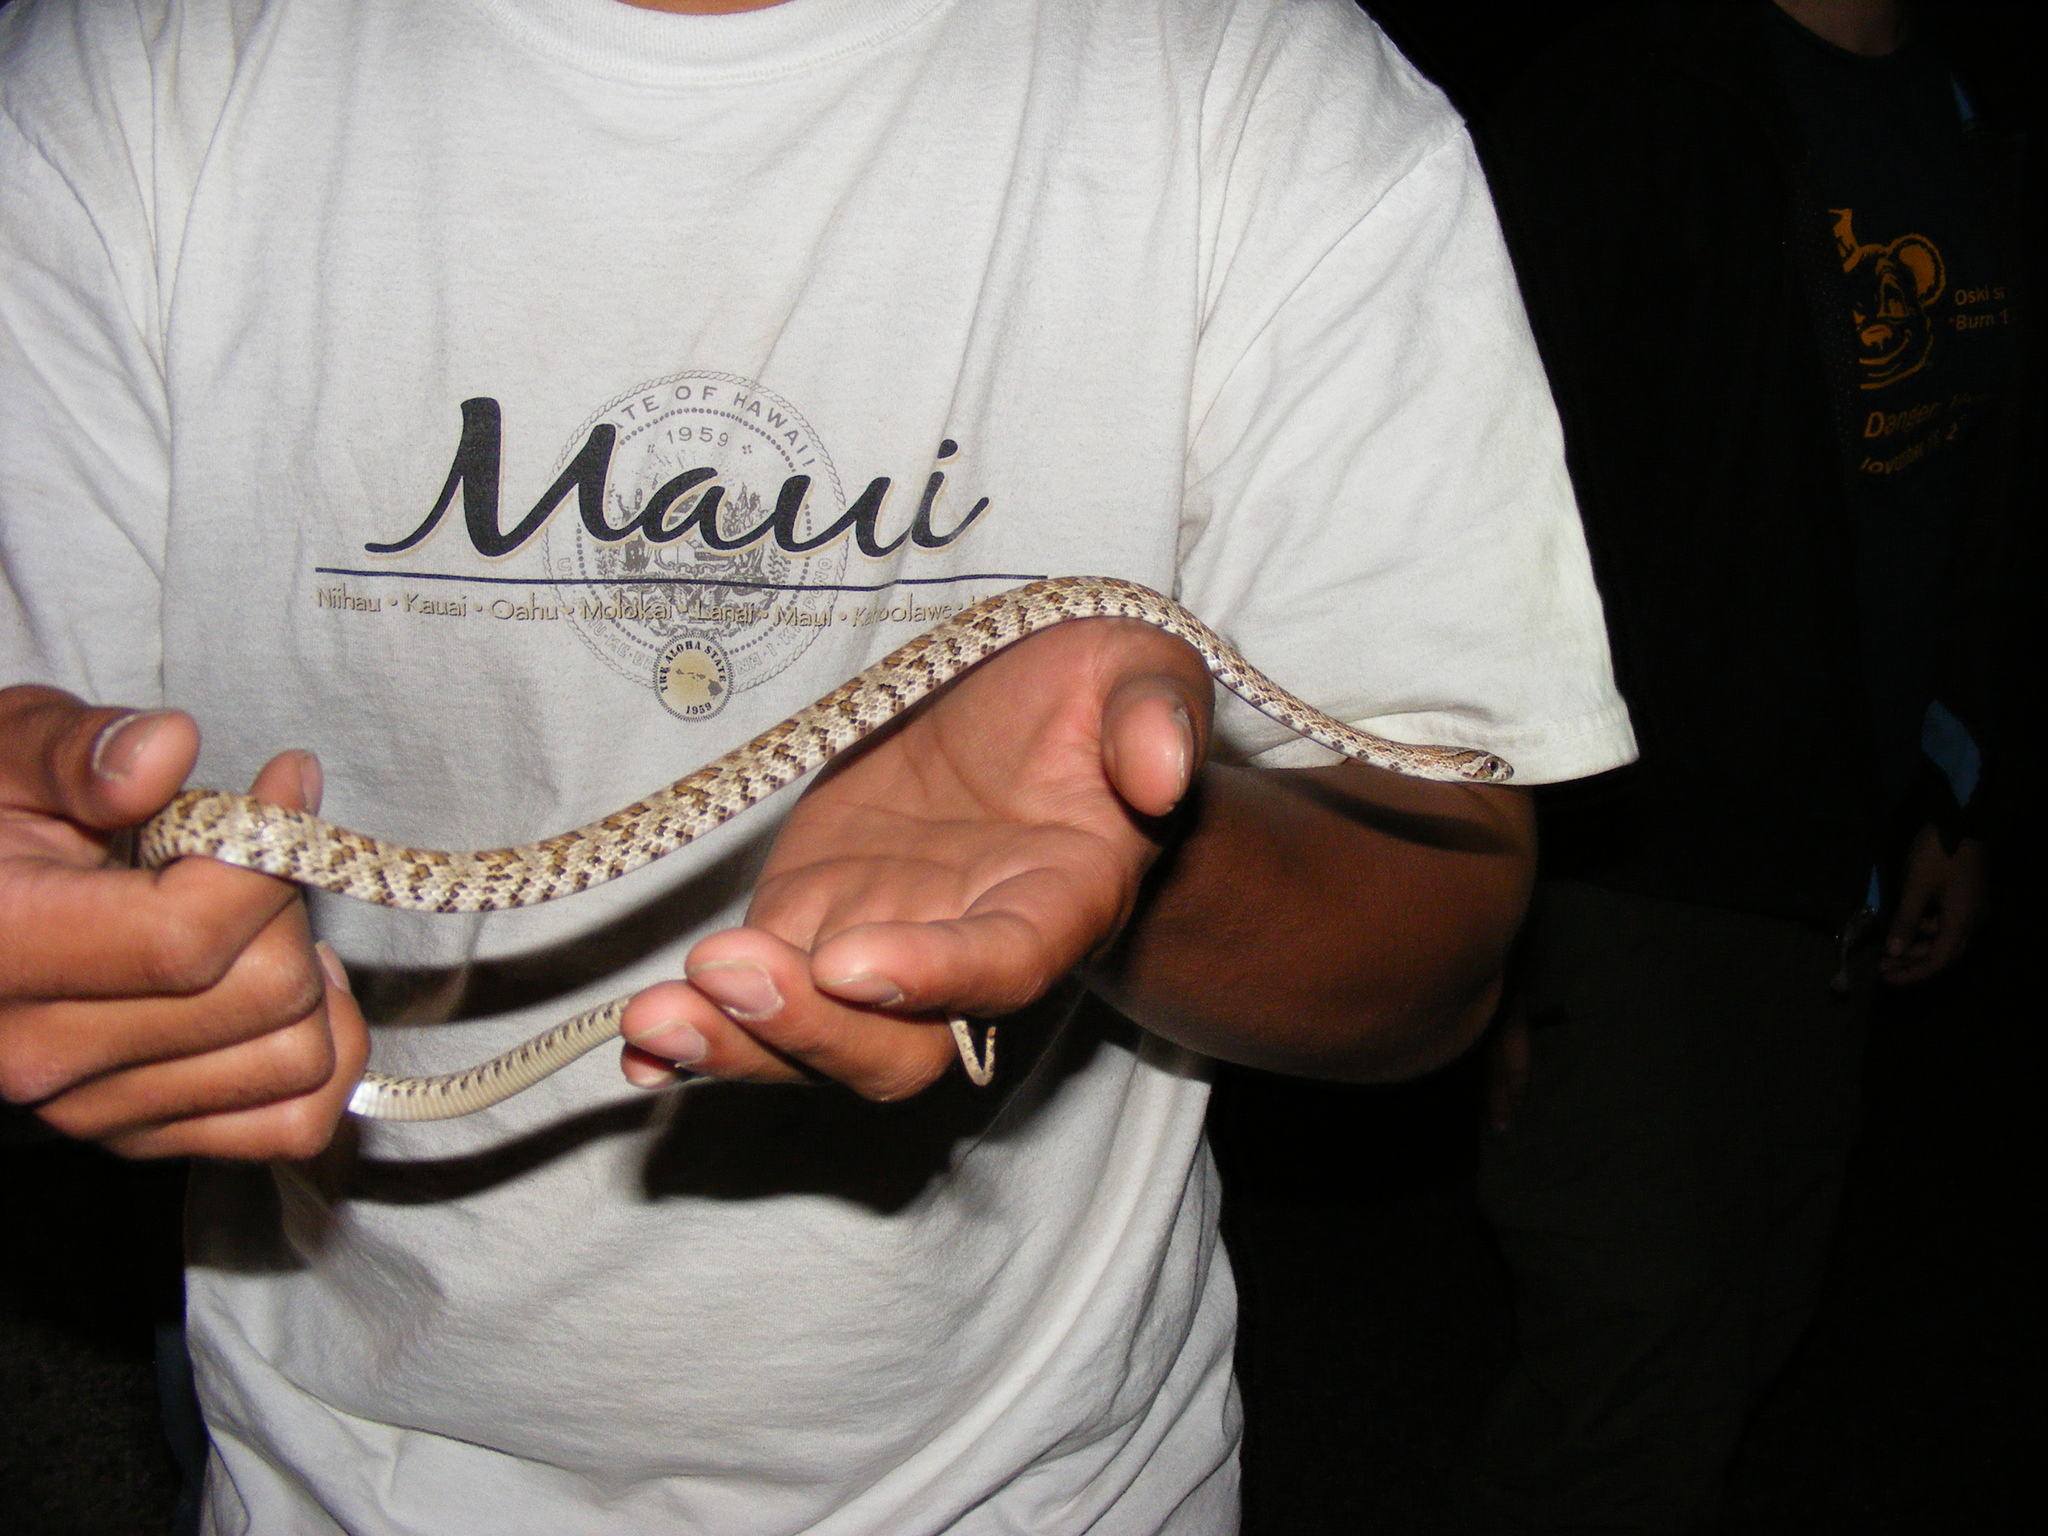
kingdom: Animalia
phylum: Chordata
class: Squamata
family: Colubridae
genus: Trimorphodon
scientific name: Trimorphodon lyrophanes
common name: Baja california lyre snake
